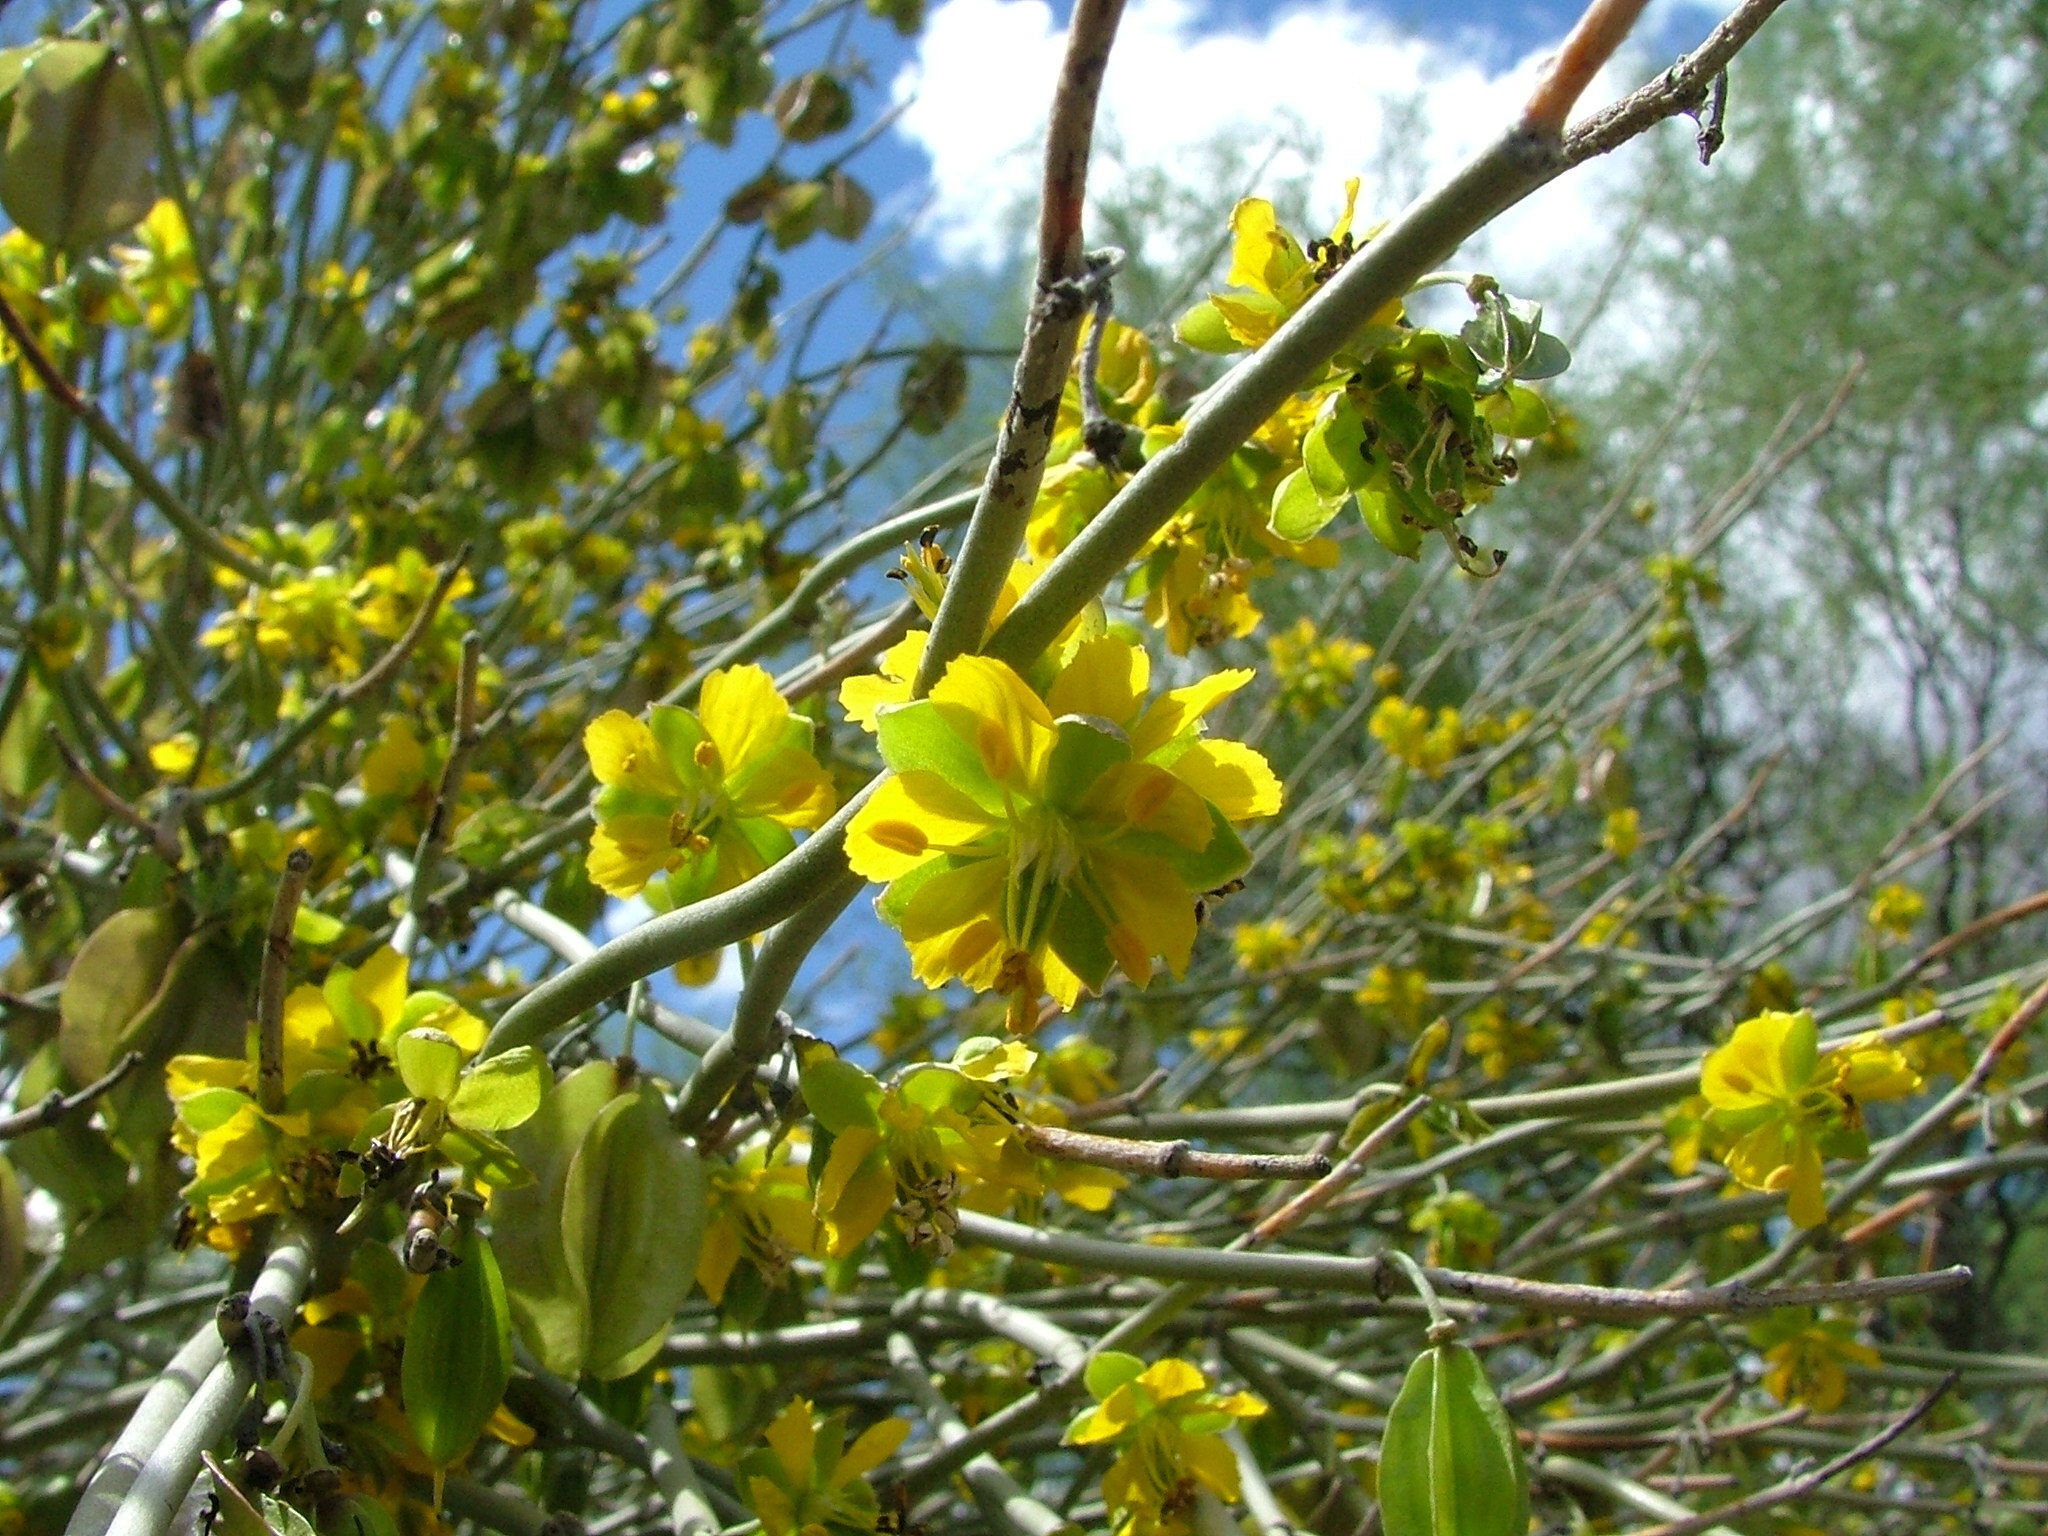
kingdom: Plantae
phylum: Tracheophyta
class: Magnoliopsida
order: Zygophyllales
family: Zygophyllaceae
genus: Bulnesia
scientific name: Bulnesia retama
